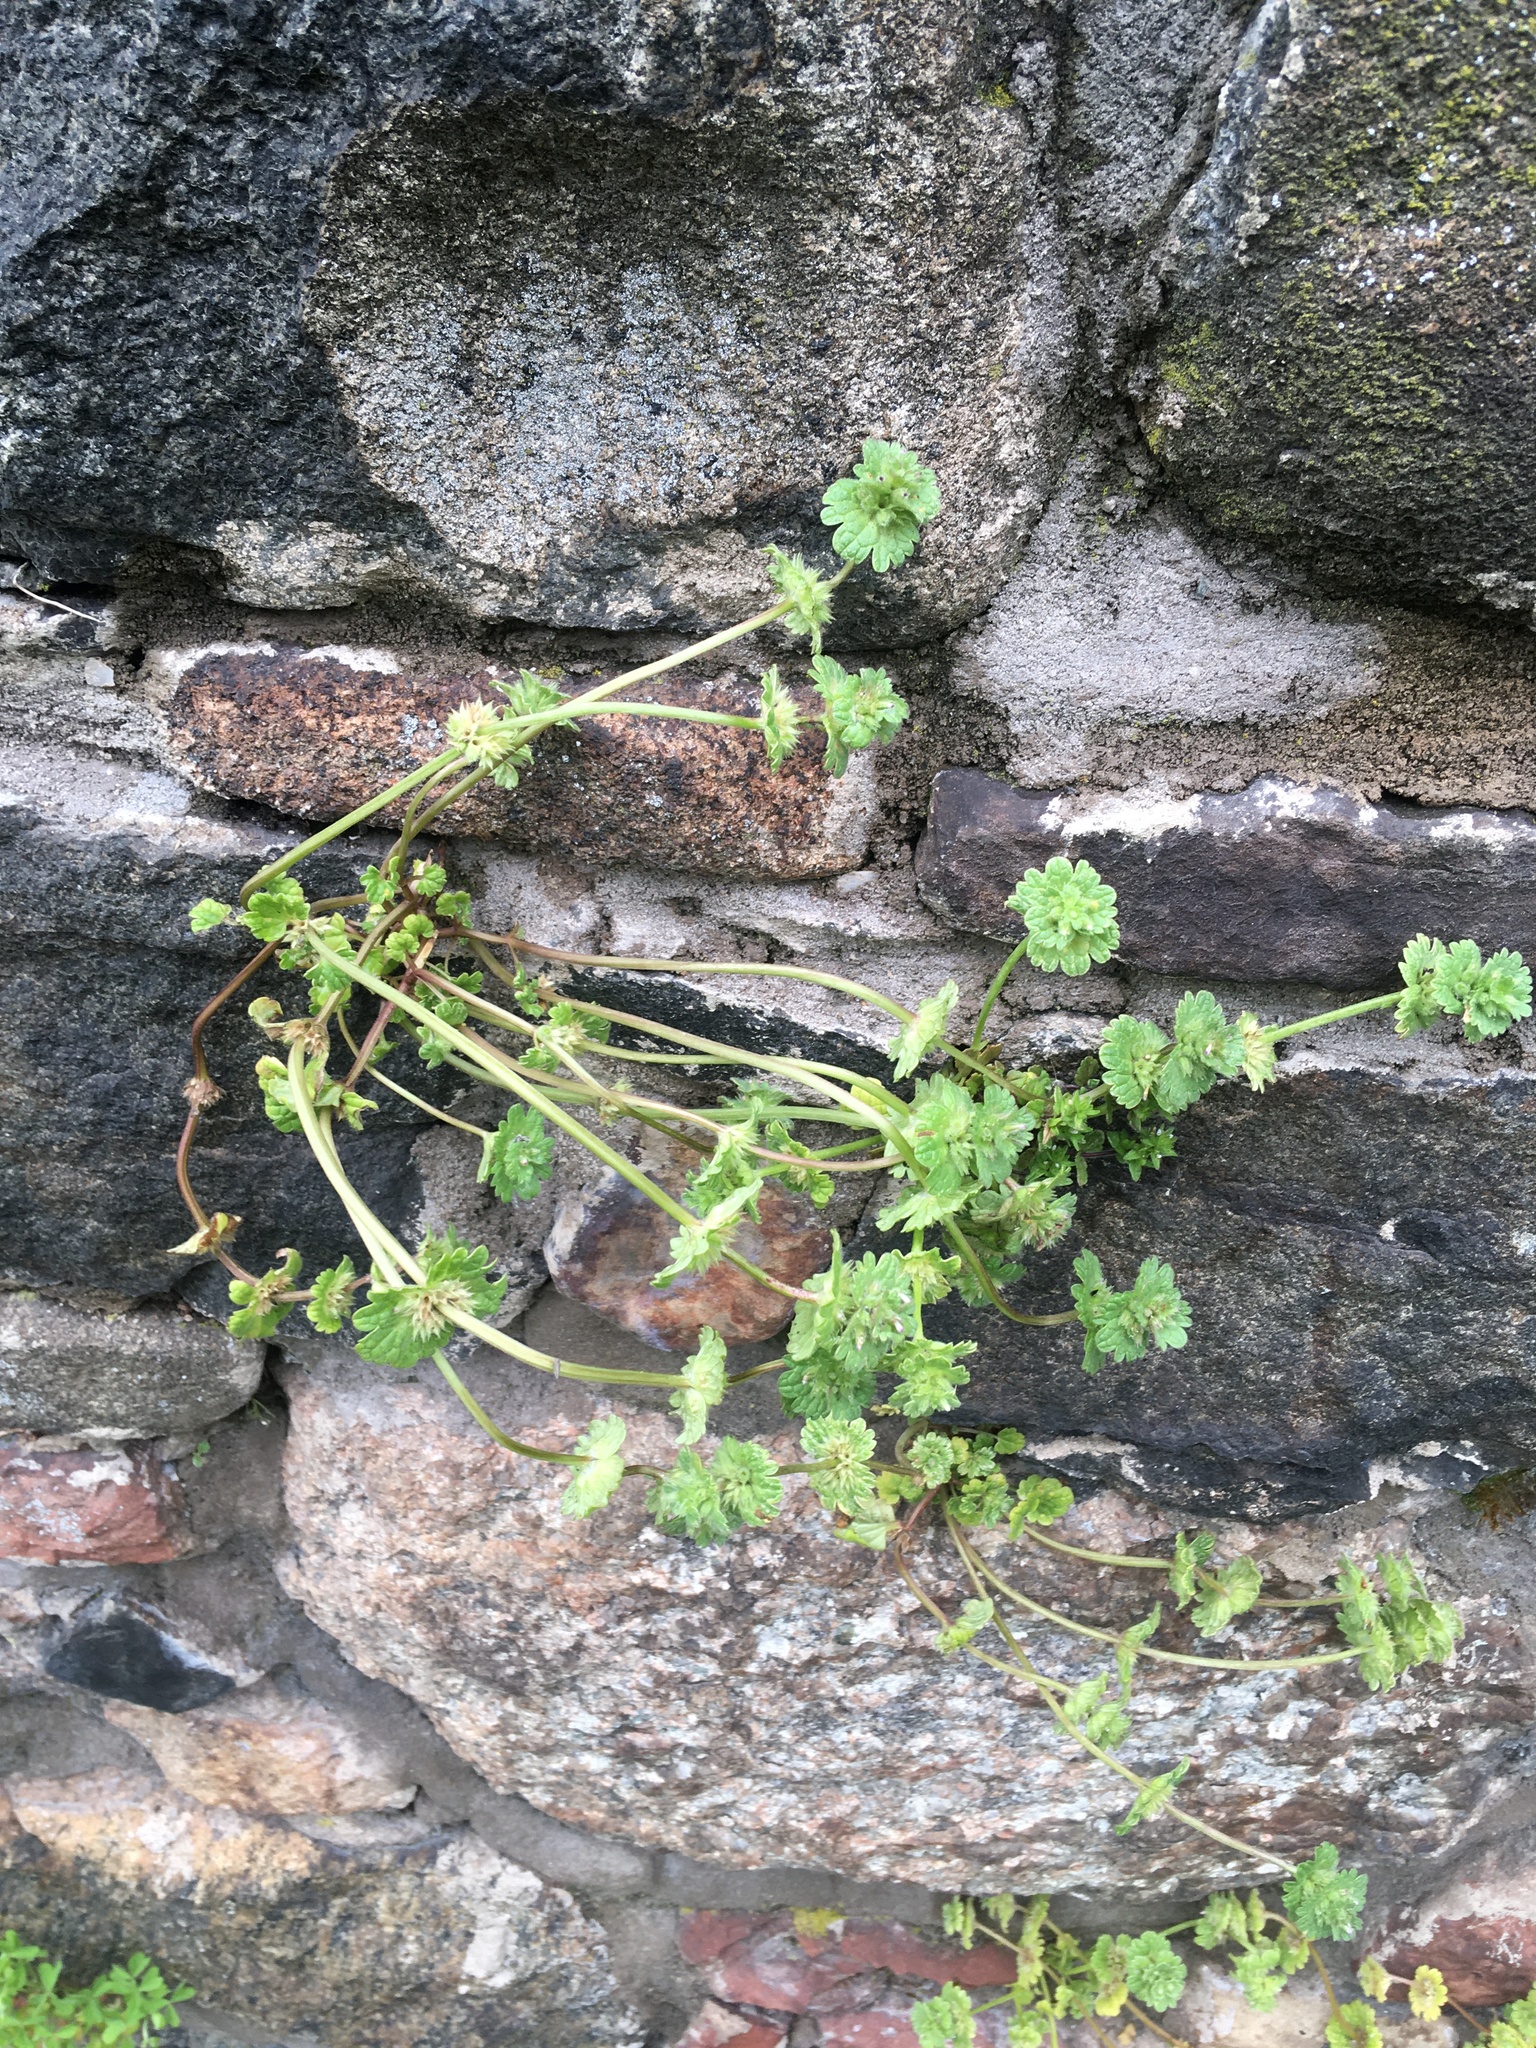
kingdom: Plantae
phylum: Tracheophyta
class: Magnoliopsida
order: Lamiales
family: Lamiaceae
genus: Lamium
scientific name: Lamium amplexicaule
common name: Henbit dead-nettle
